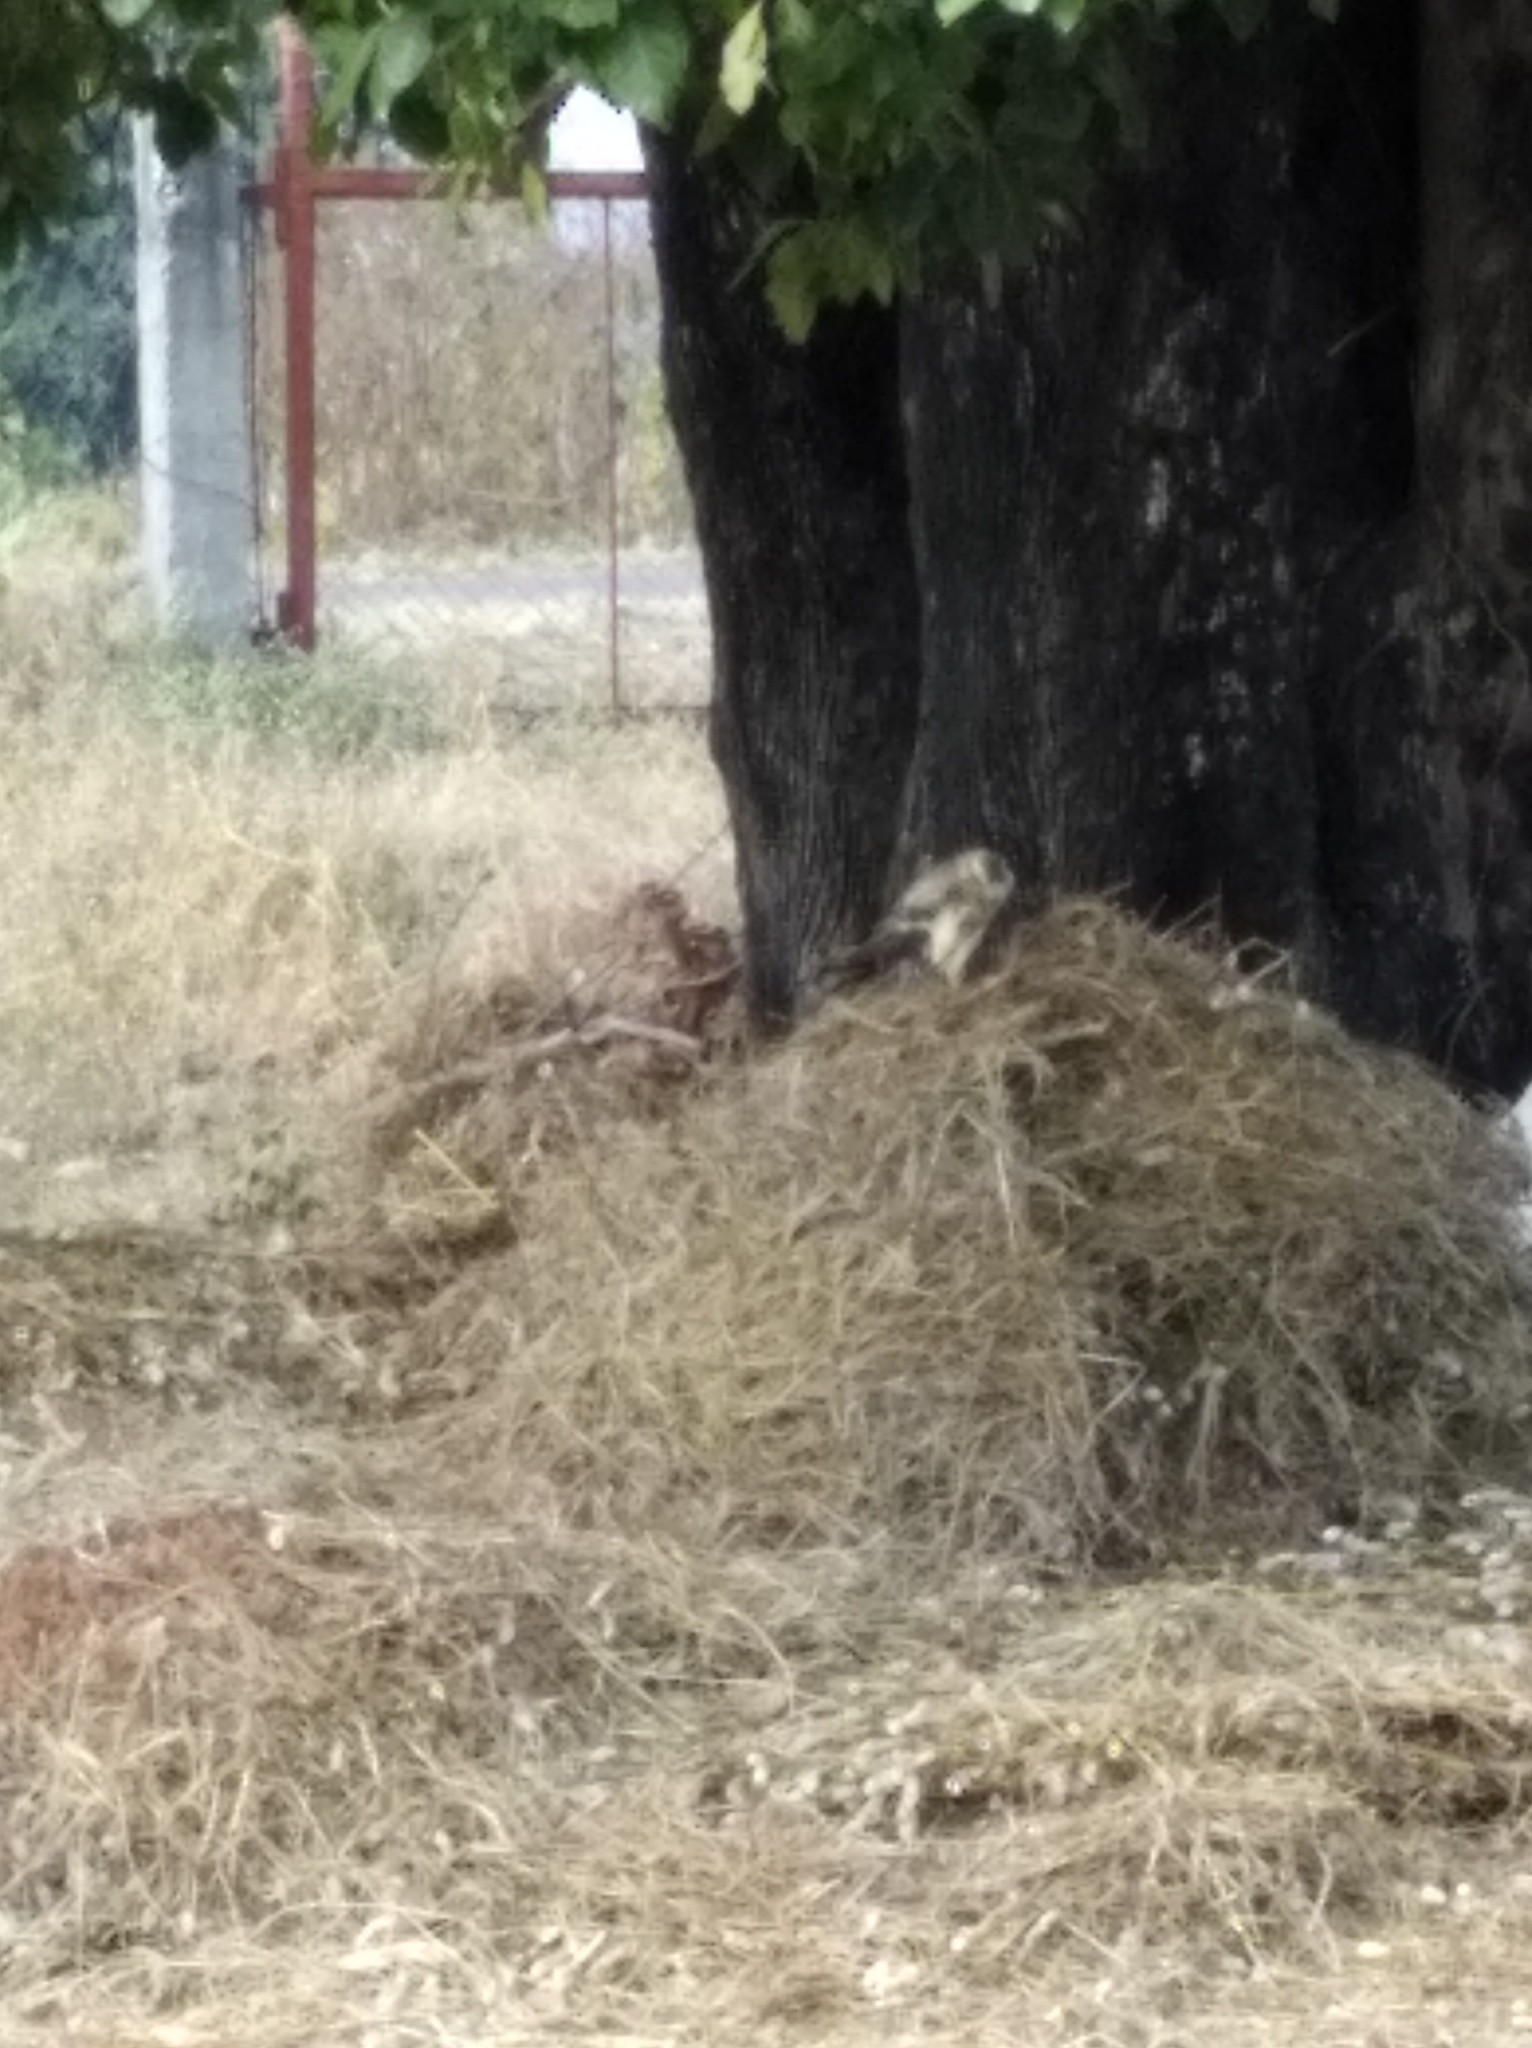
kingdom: Animalia
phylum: Chordata
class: Aves
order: Accipitriformes
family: Accipitridae
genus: Hieraaetus
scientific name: Hieraaetus pennatus
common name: Booted eagle
